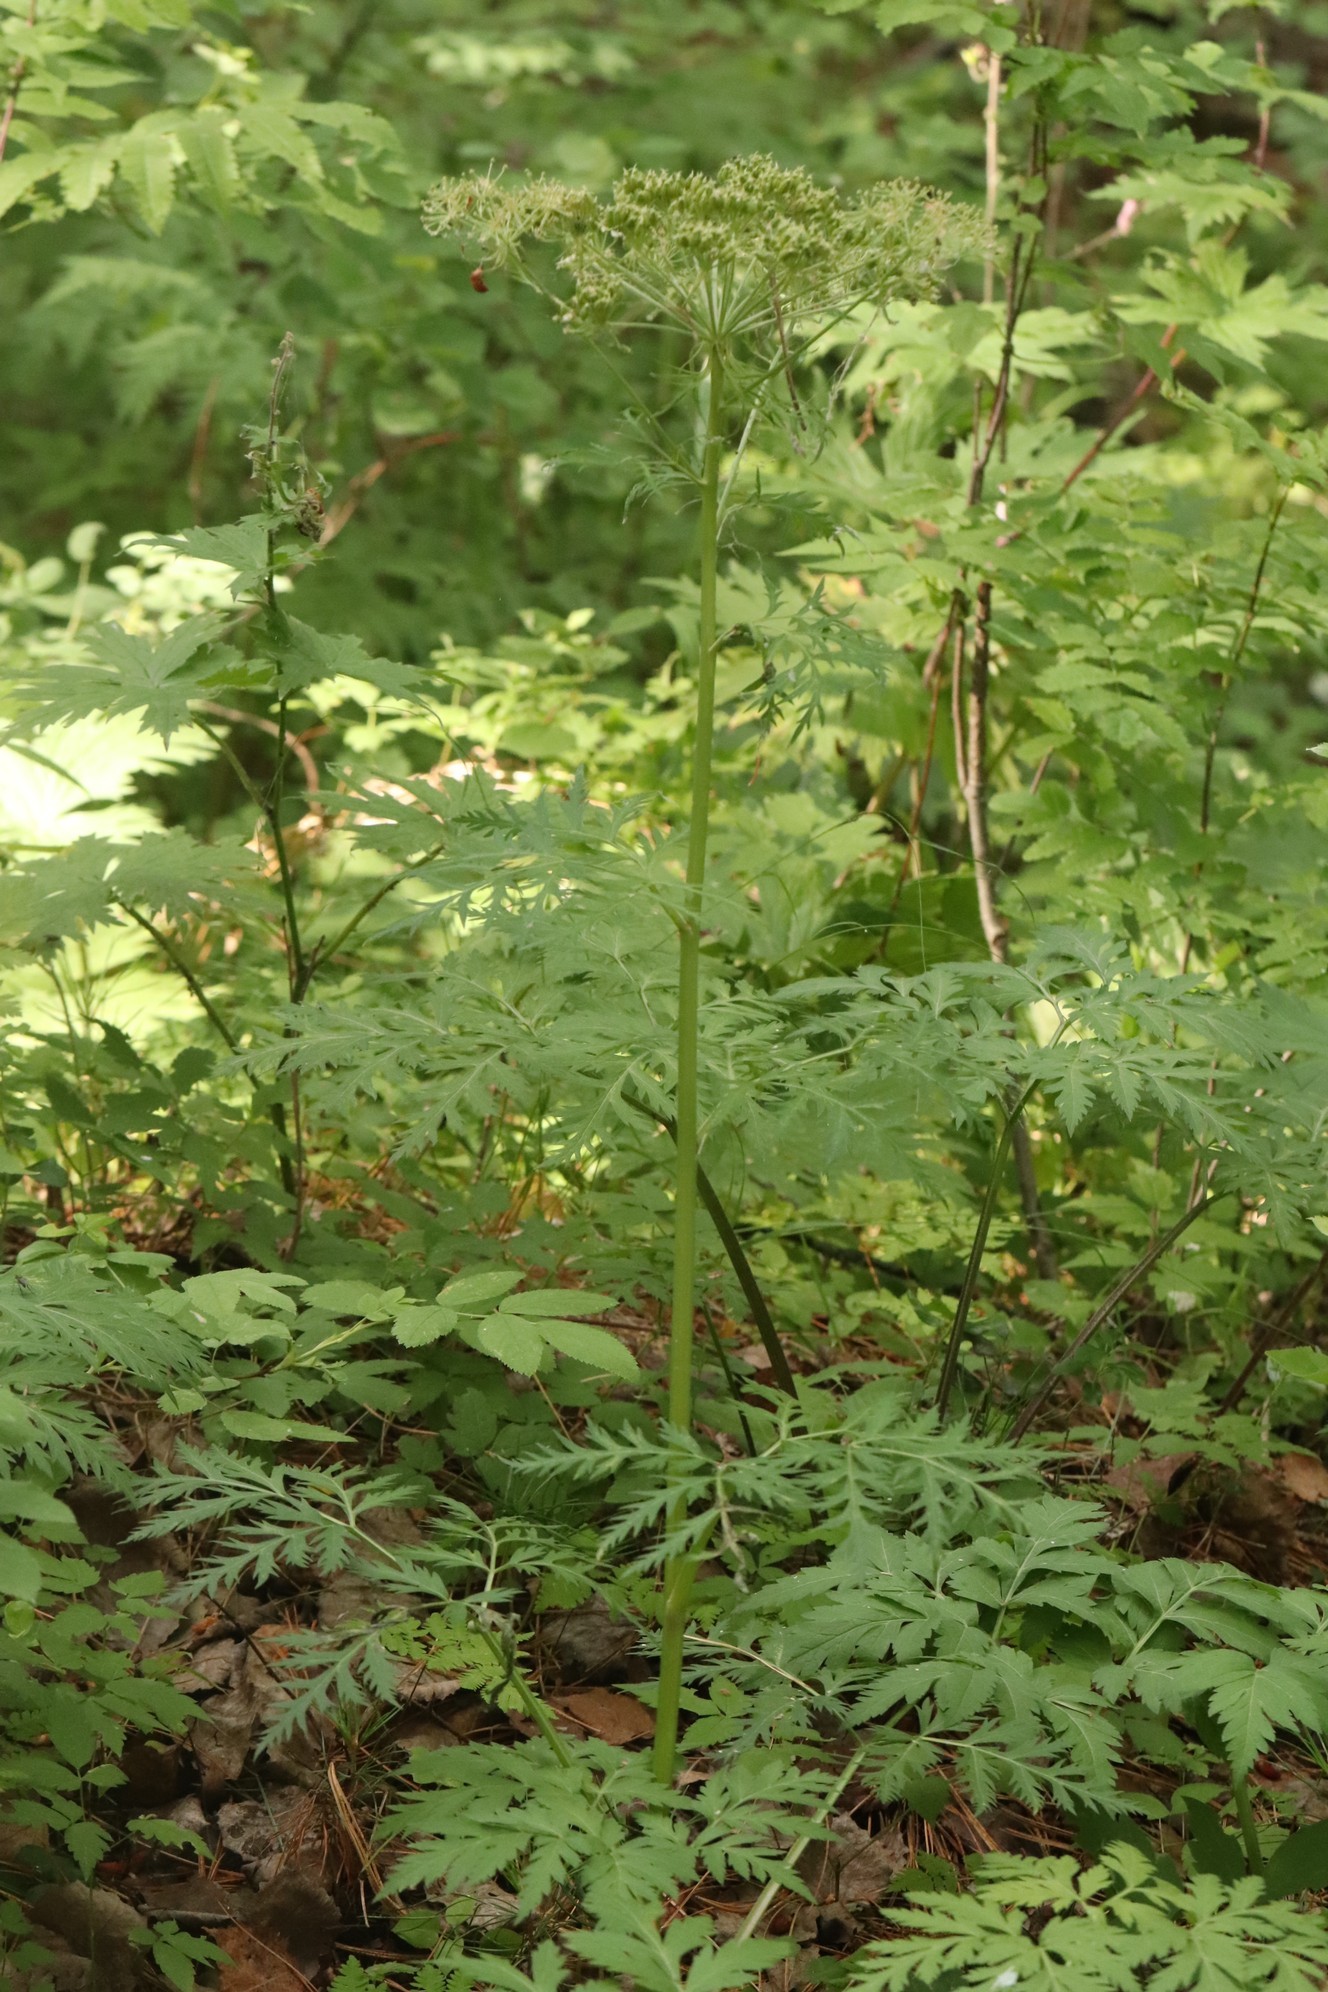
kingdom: Plantae
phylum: Tracheophyta
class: Magnoliopsida
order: Apiales
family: Apiaceae
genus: Pleurospermum
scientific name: Pleurospermum uralense
